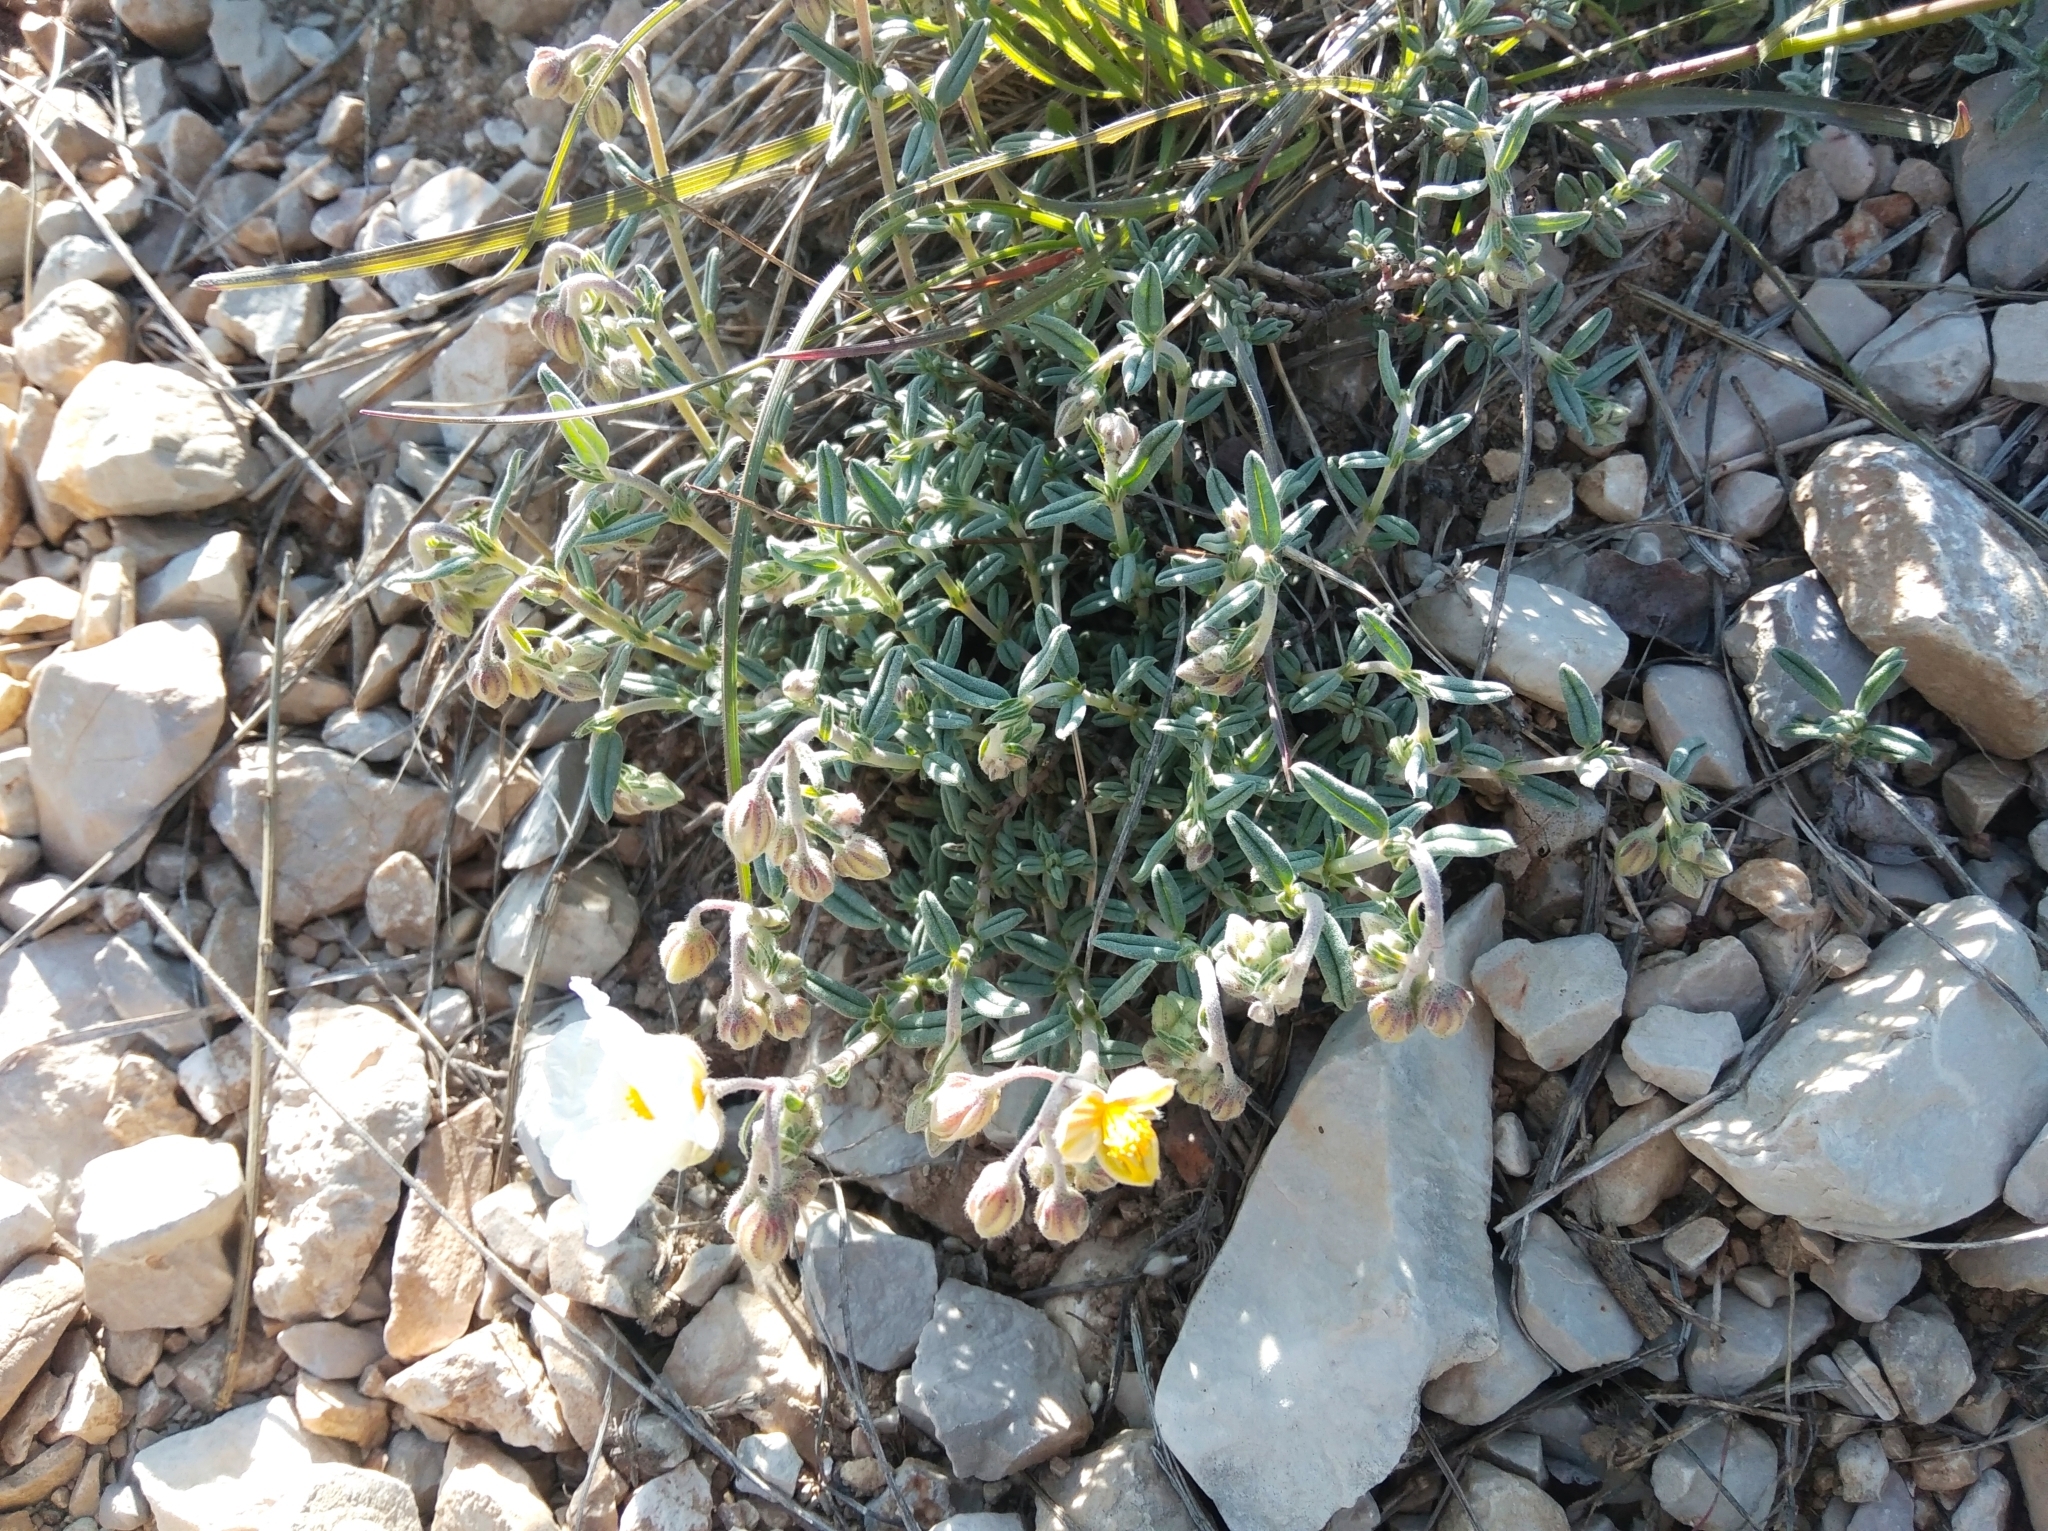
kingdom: Plantae
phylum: Tracheophyta
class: Magnoliopsida
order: Malvales
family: Cistaceae
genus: Helianthemum
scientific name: Helianthemum apenninum
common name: White rock-rose
